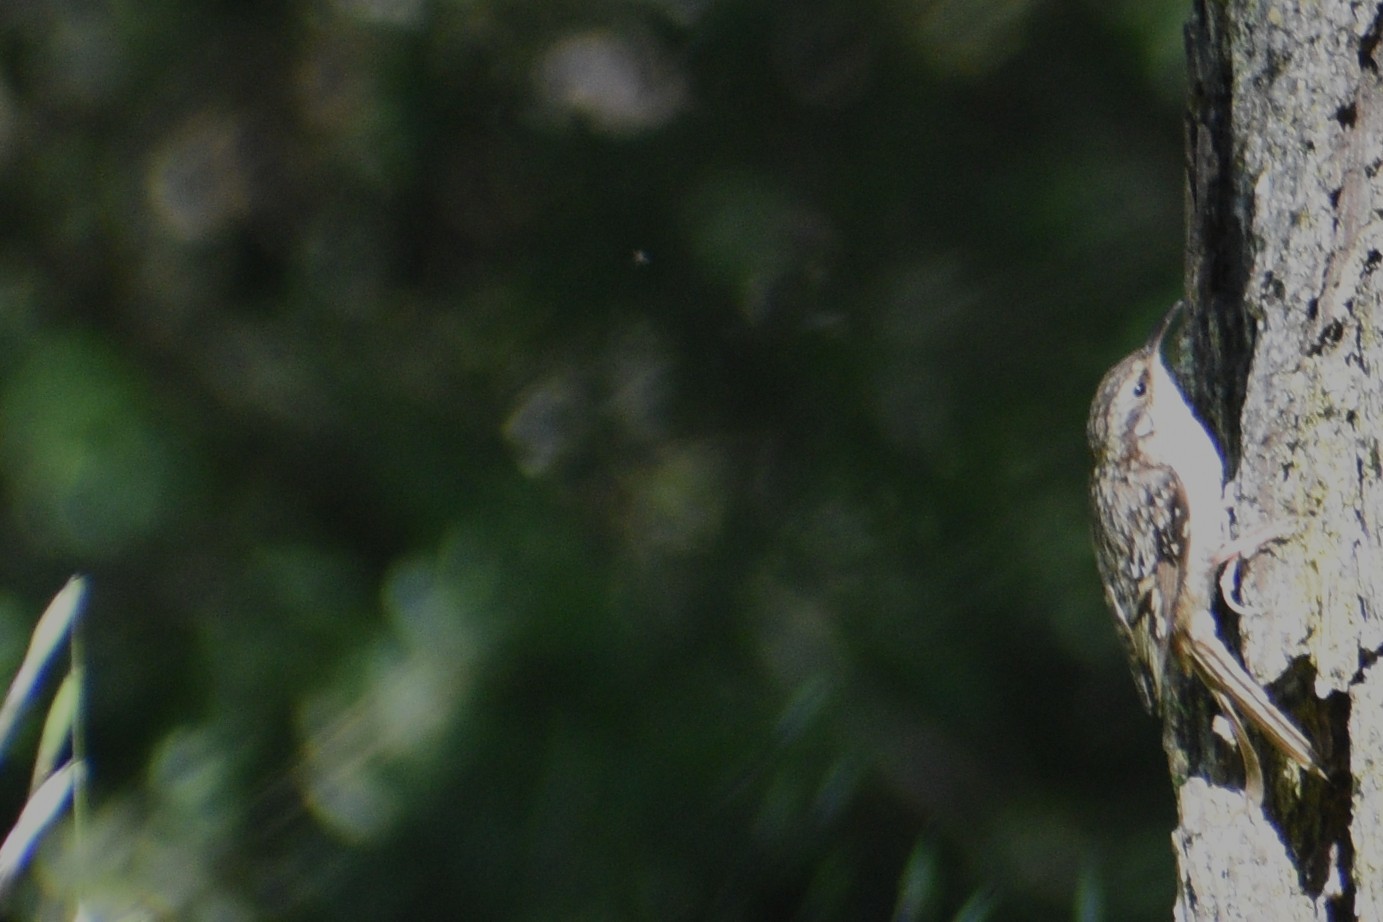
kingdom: Animalia
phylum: Chordata
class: Aves
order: Passeriformes
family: Certhiidae
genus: Certhia
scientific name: Certhia americana
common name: Brown creeper
